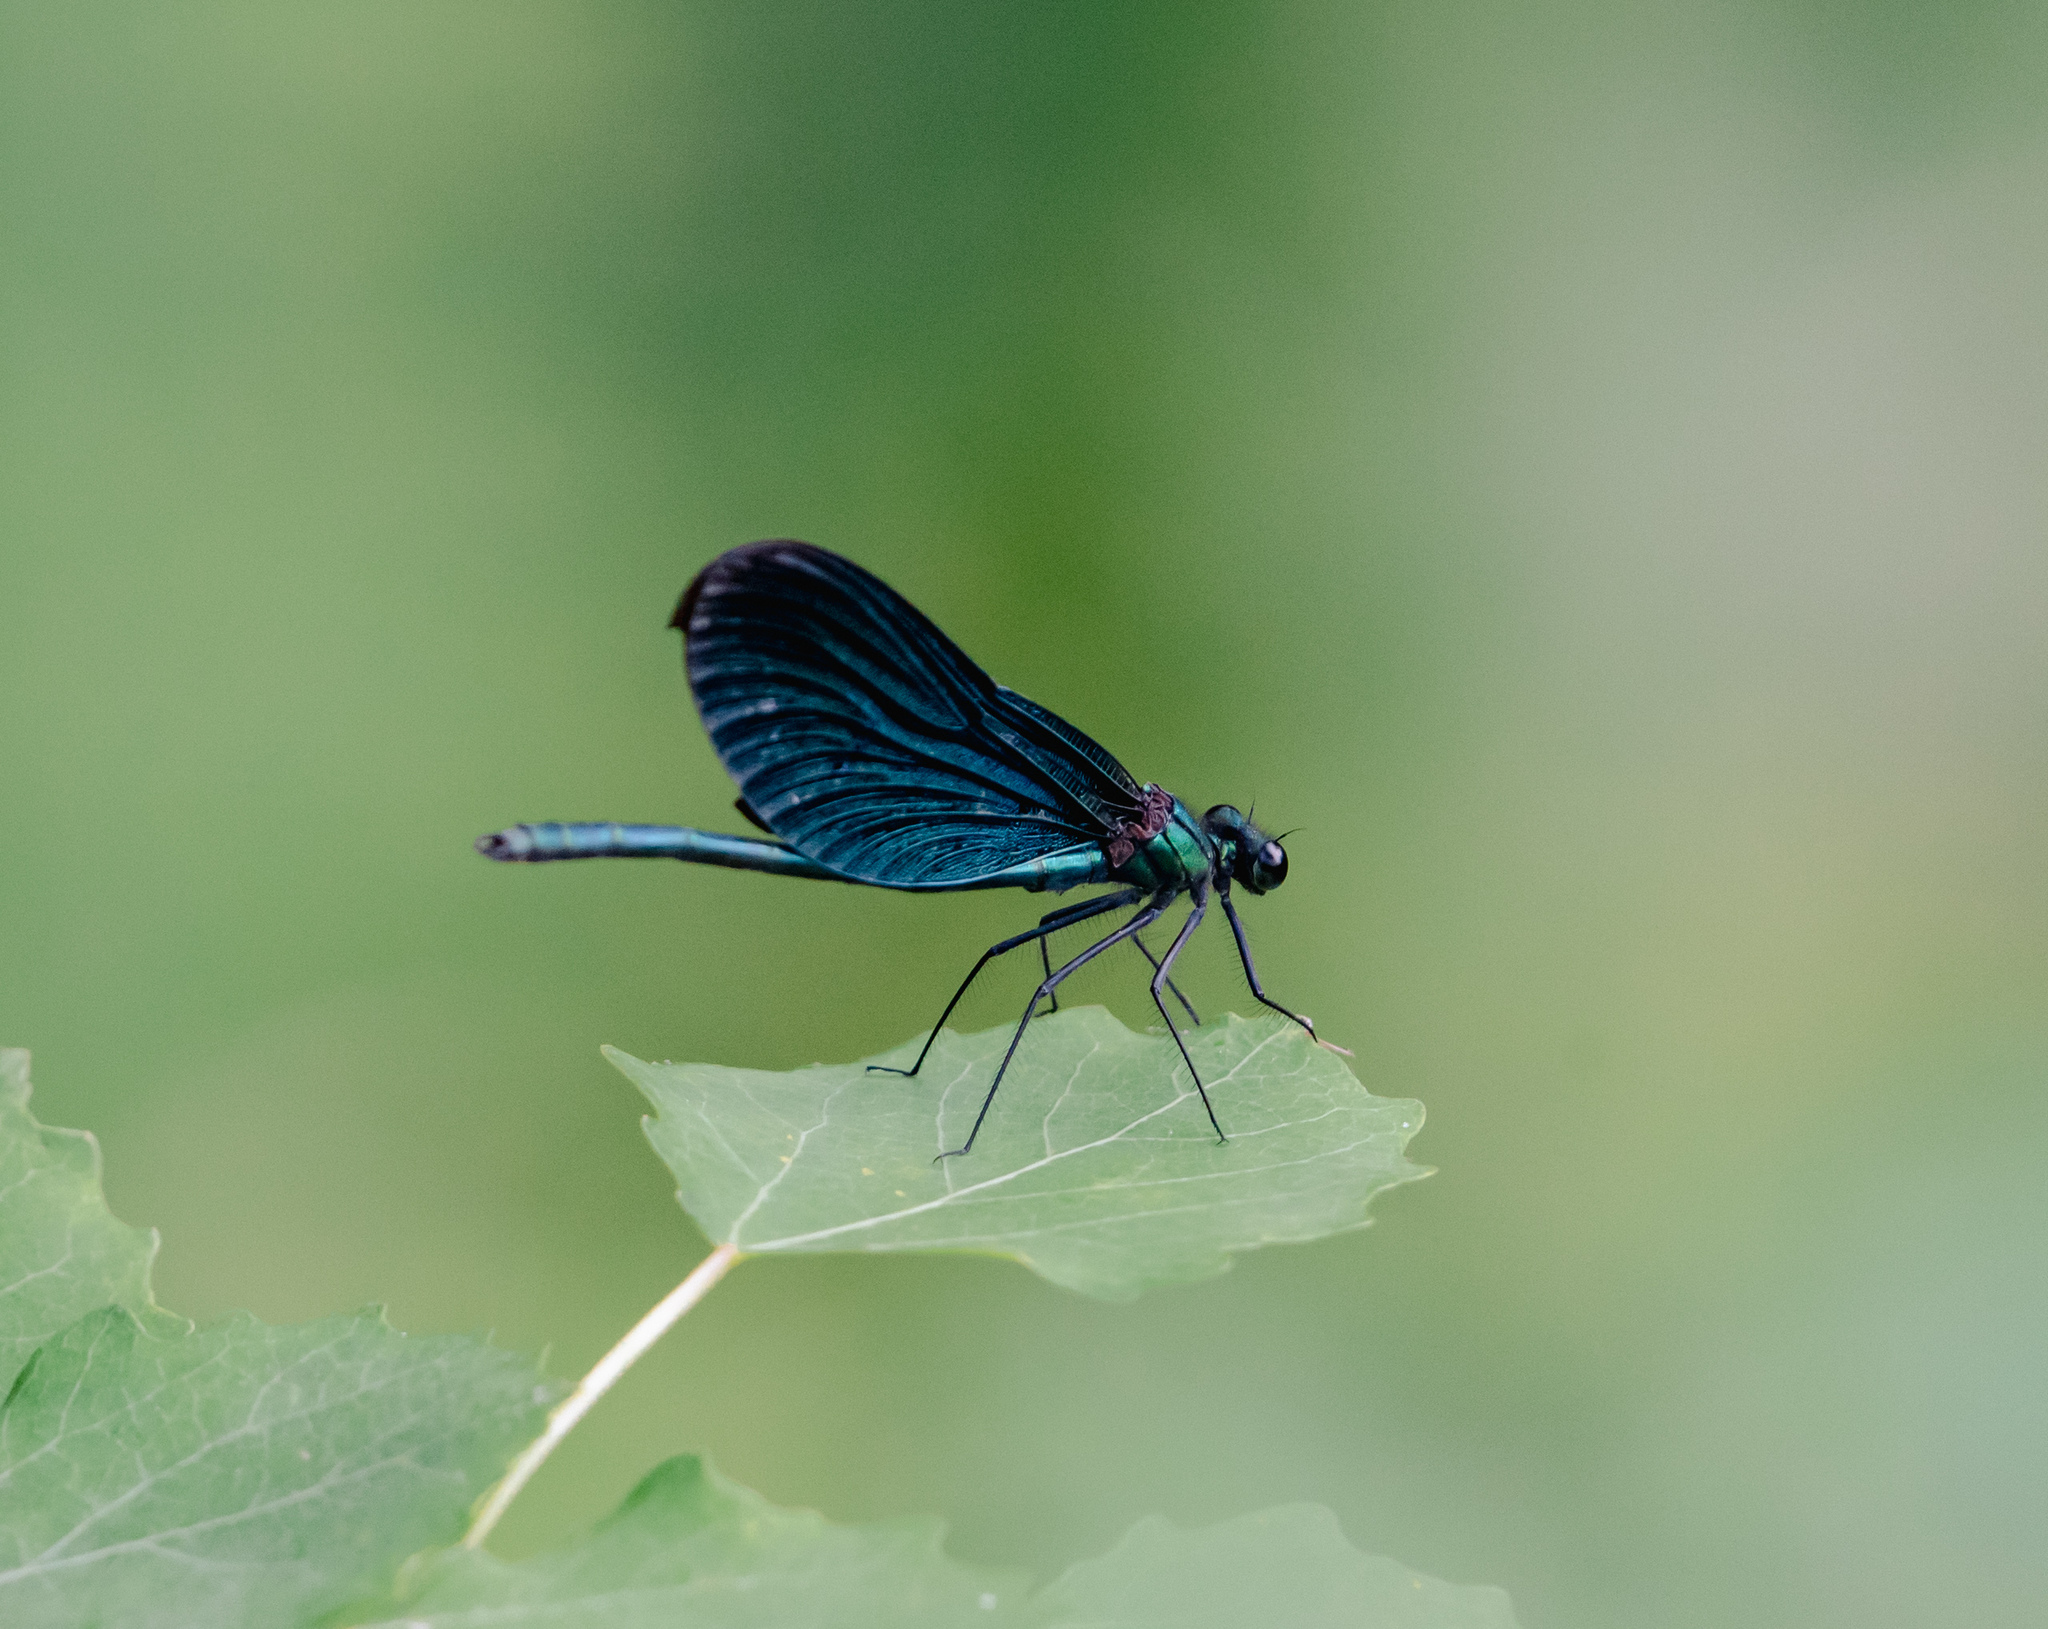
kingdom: Animalia
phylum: Arthropoda
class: Insecta
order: Odonata
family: Calopterygidae
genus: Calopteryx
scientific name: Calopteryx virgo
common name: Beautiful demoiselle
